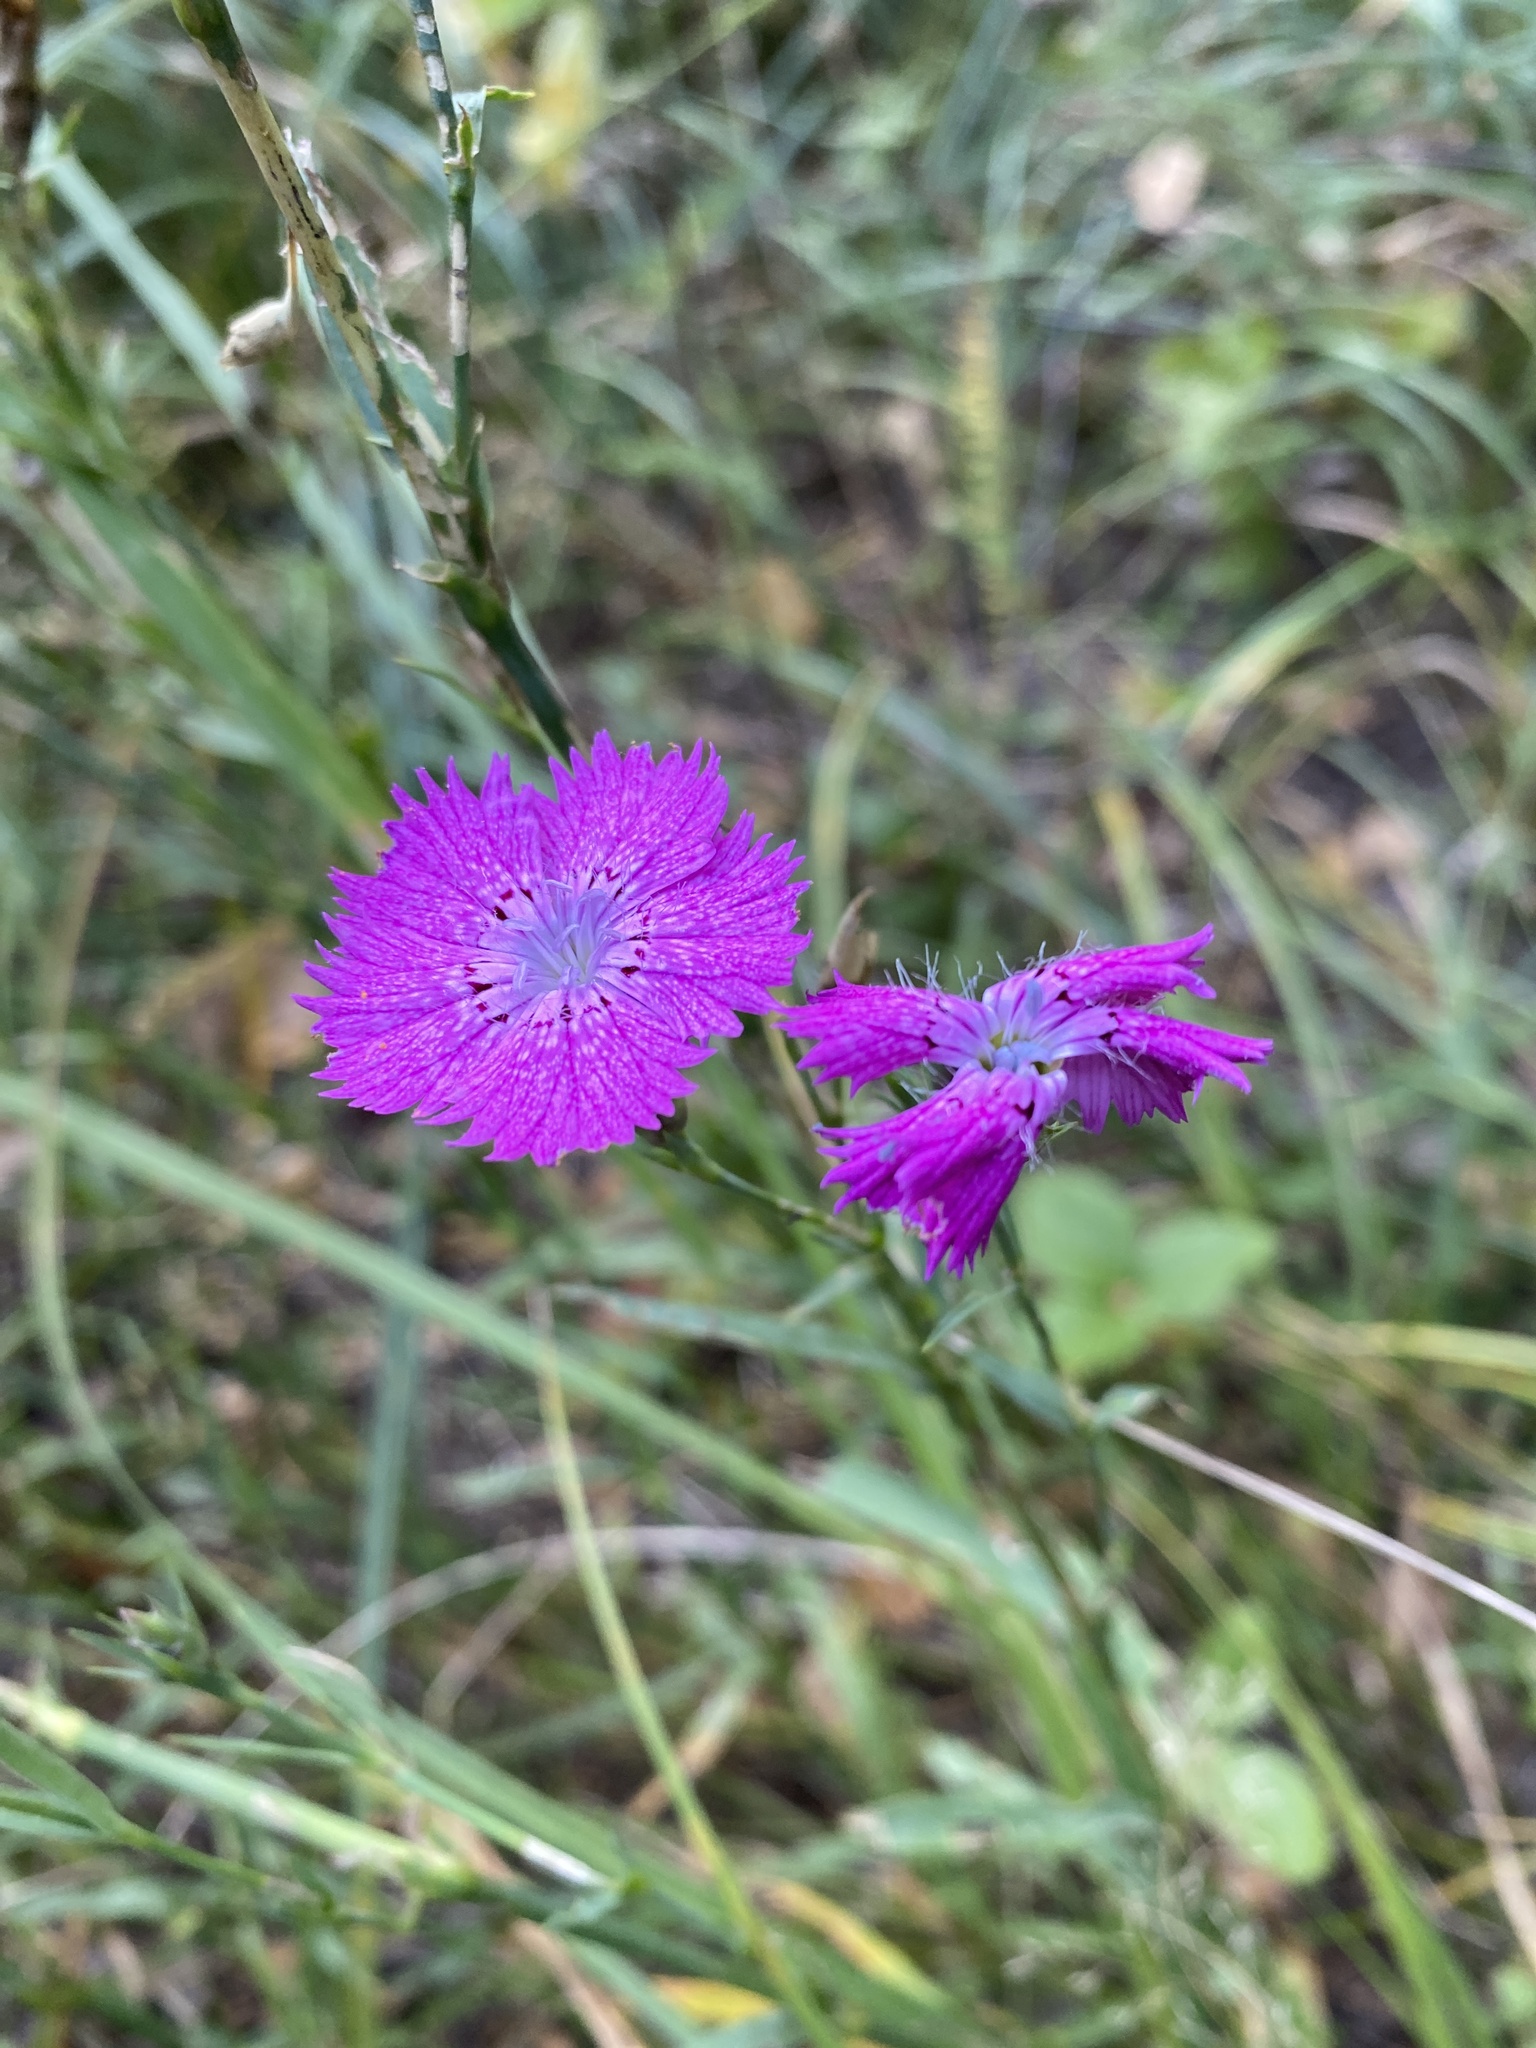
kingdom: Plantae
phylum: Tracheophyta
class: Magnoliopsida
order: Caryophyllales
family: Caryophyllaceae
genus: Dianthus
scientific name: Dianthus chinensis
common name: Rainbow pink
